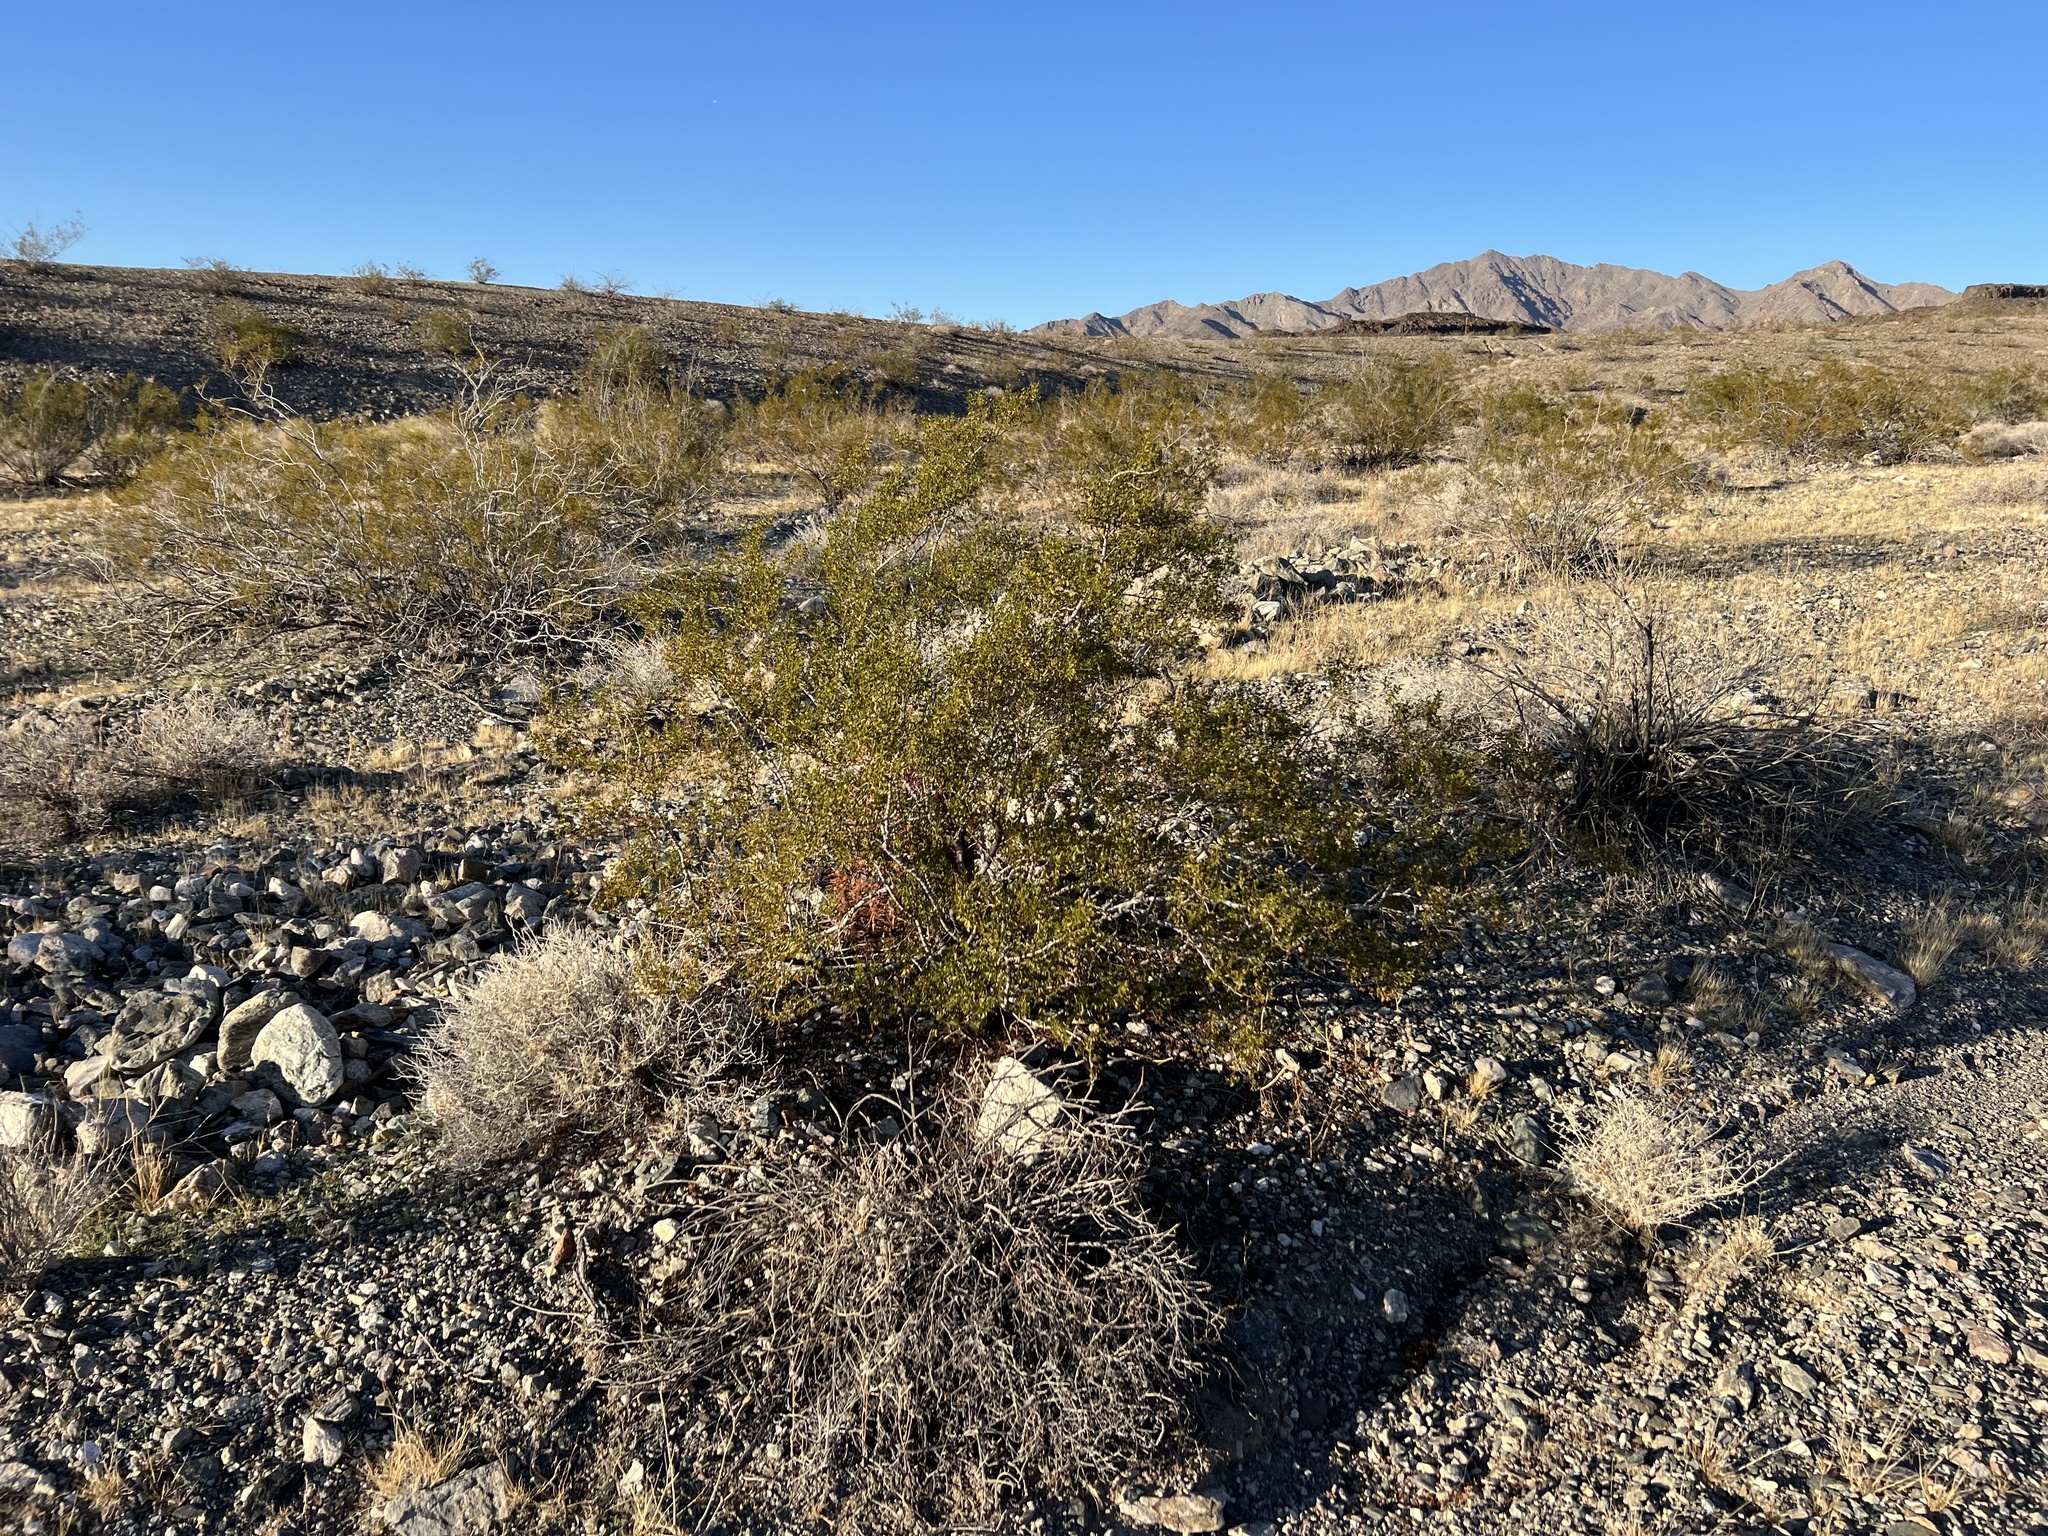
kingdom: Plantae
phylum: Tracheophyta
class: Magnoliopsida
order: Zygophyllales
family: Zygophyllaceae
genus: Larrea
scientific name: Larrea tridentata
